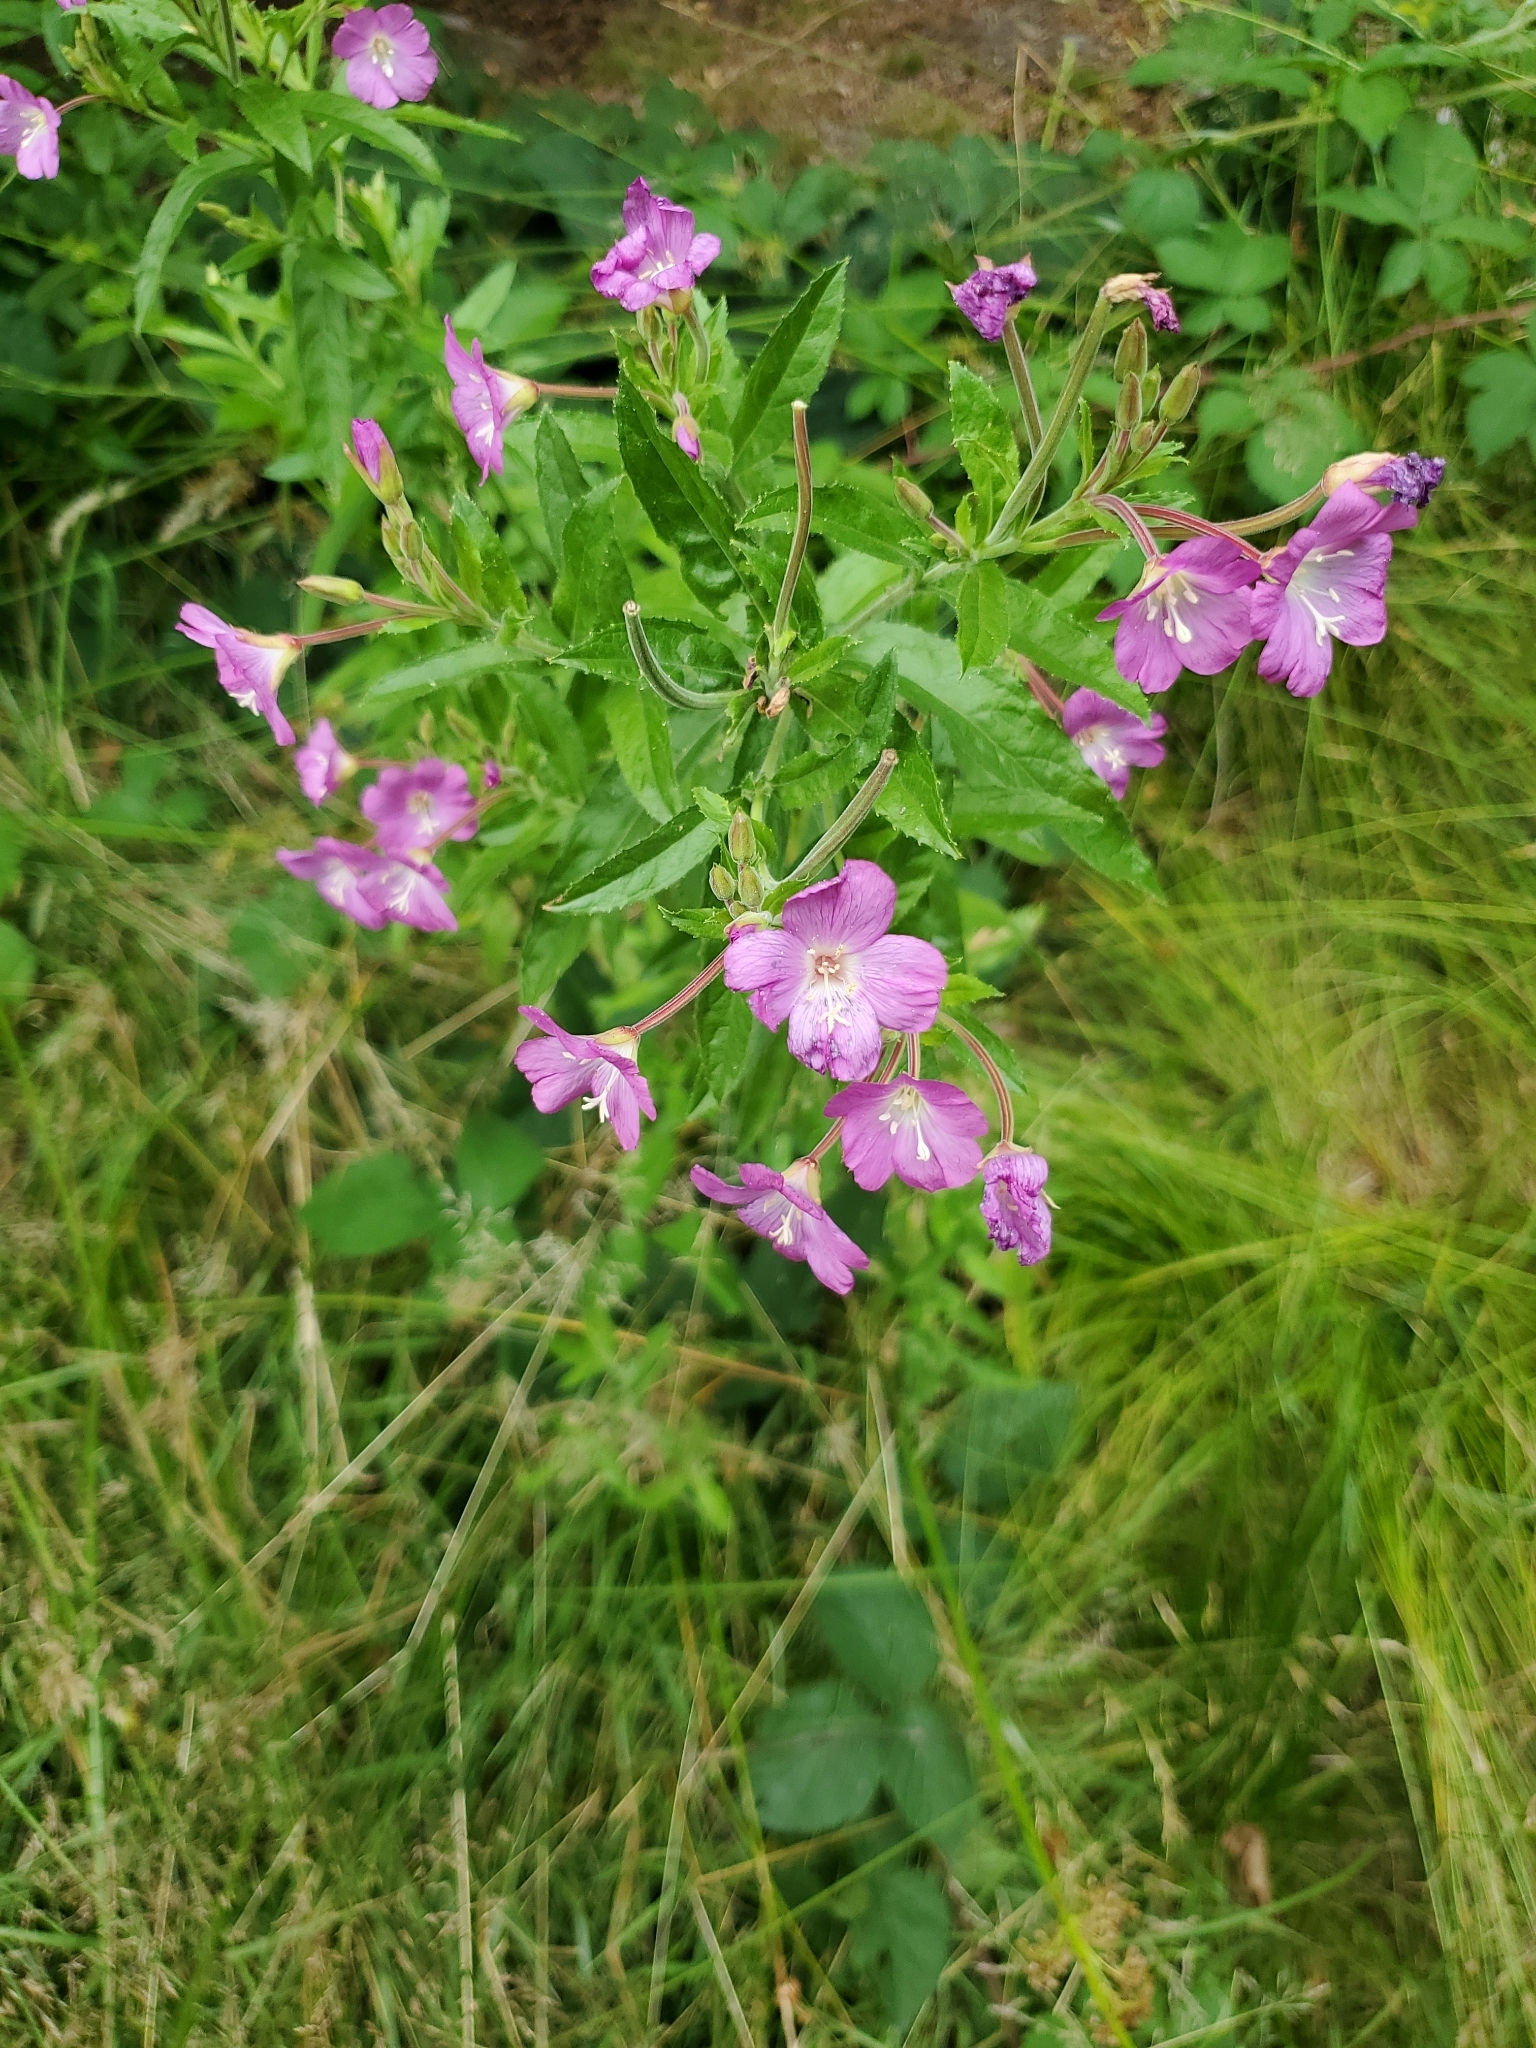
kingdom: Plantae
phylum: Tracheophyta
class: Magnoliopsida
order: Myrtales
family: Onagraceae
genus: Epilobium
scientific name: Epilobium hirsutum
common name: Great willowherb
